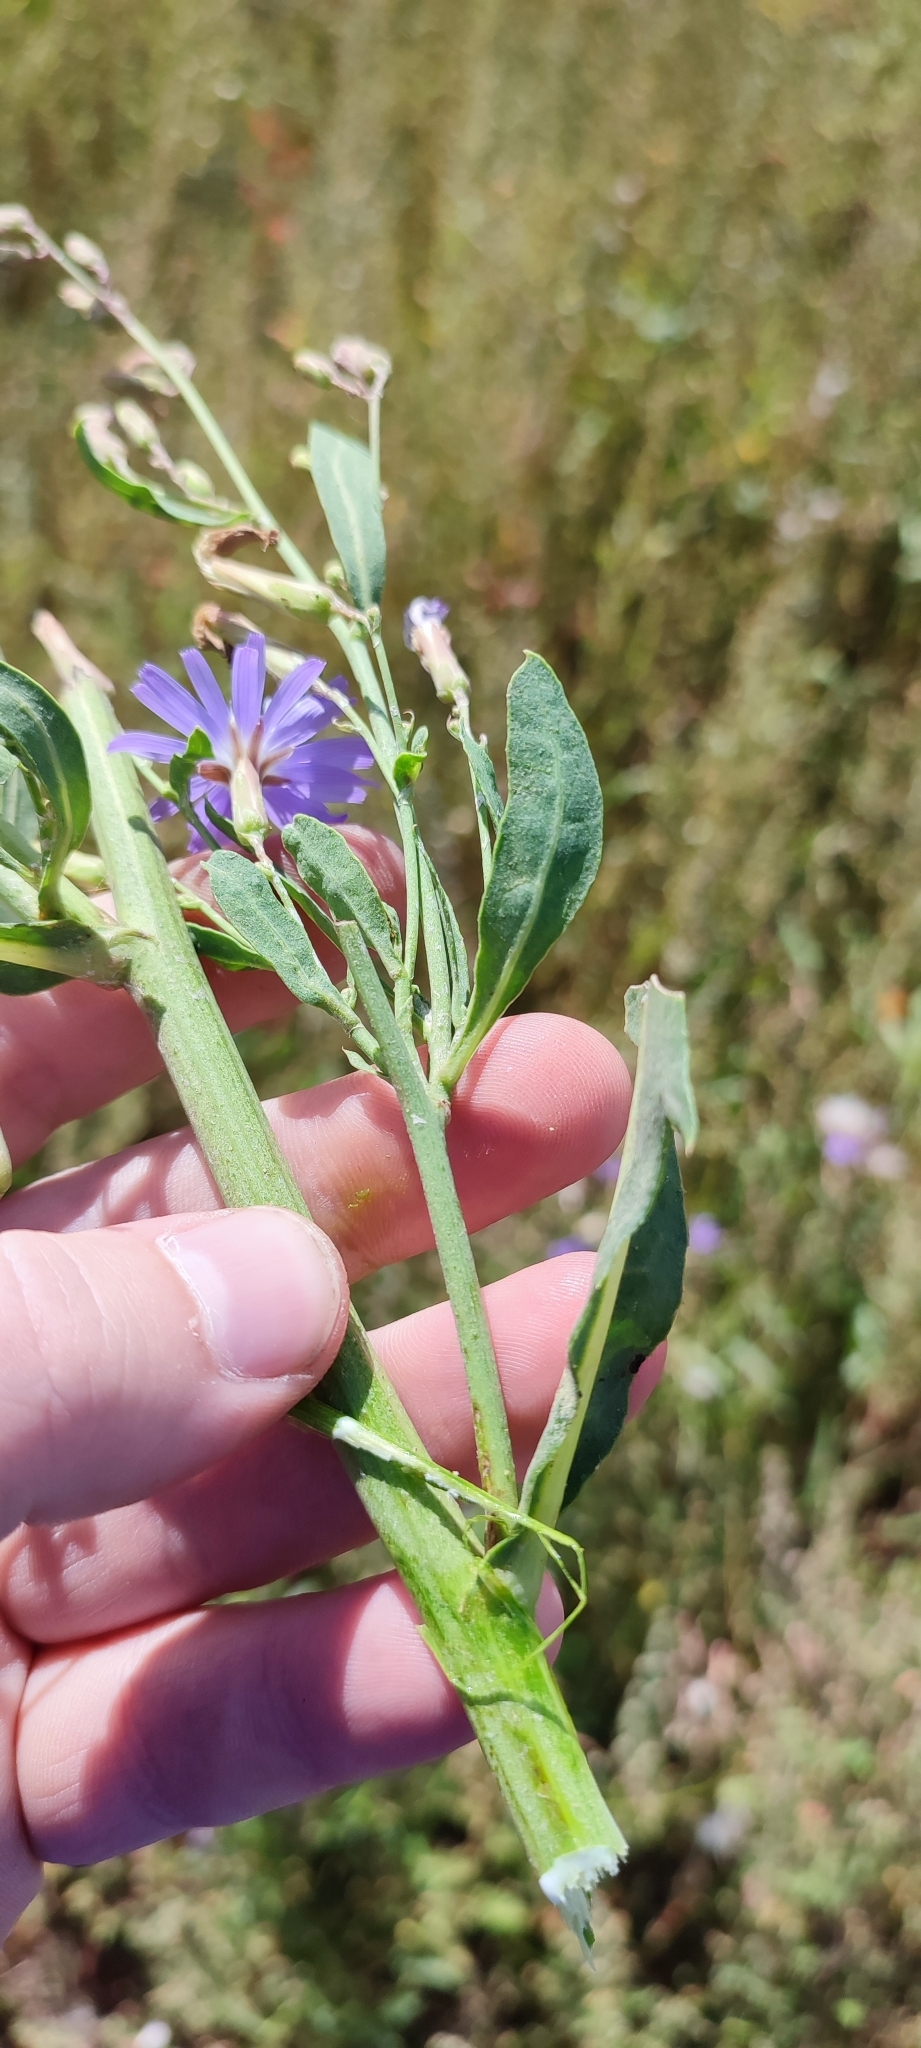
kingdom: Plantae
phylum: Tracheophyta
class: Magnoliopsida
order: Asterales
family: Asteraceae
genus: Lactuca
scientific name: Lactuca tatarica
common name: Blue lettuce
